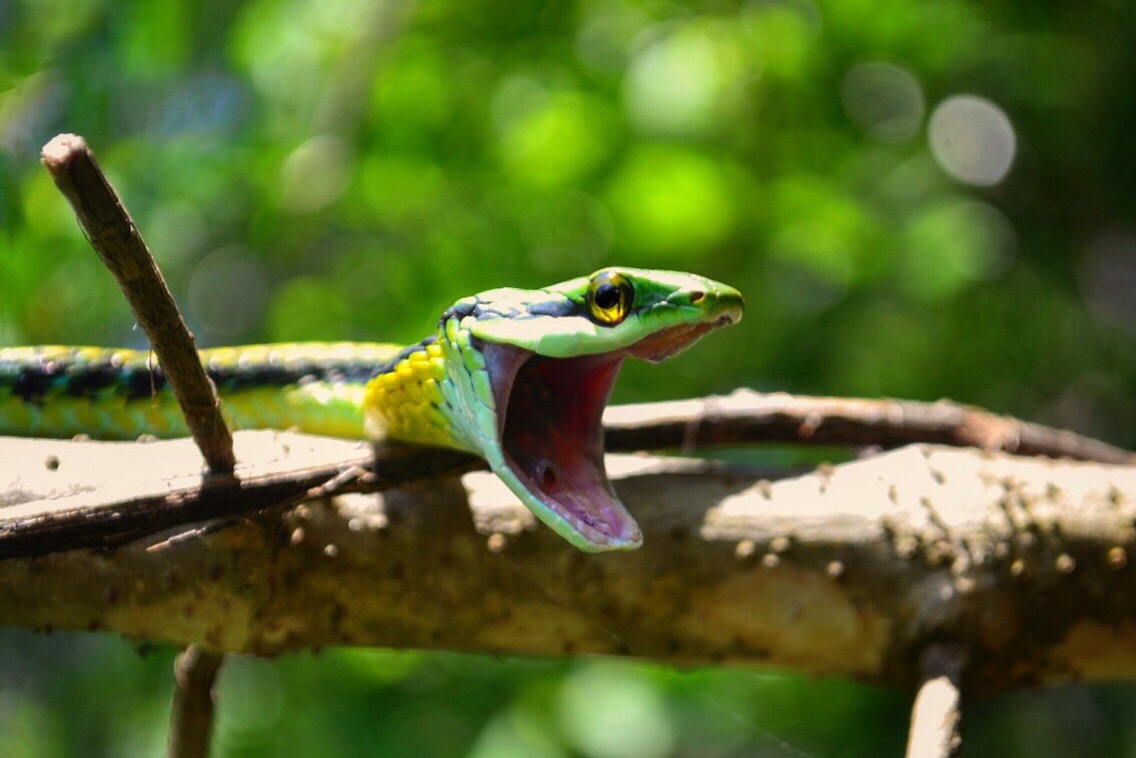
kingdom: Animalia
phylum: Chordata
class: Squamata
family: Colubridae
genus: Leptophis
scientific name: Leptophis diplotropis
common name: Pacific coast parrot snake
